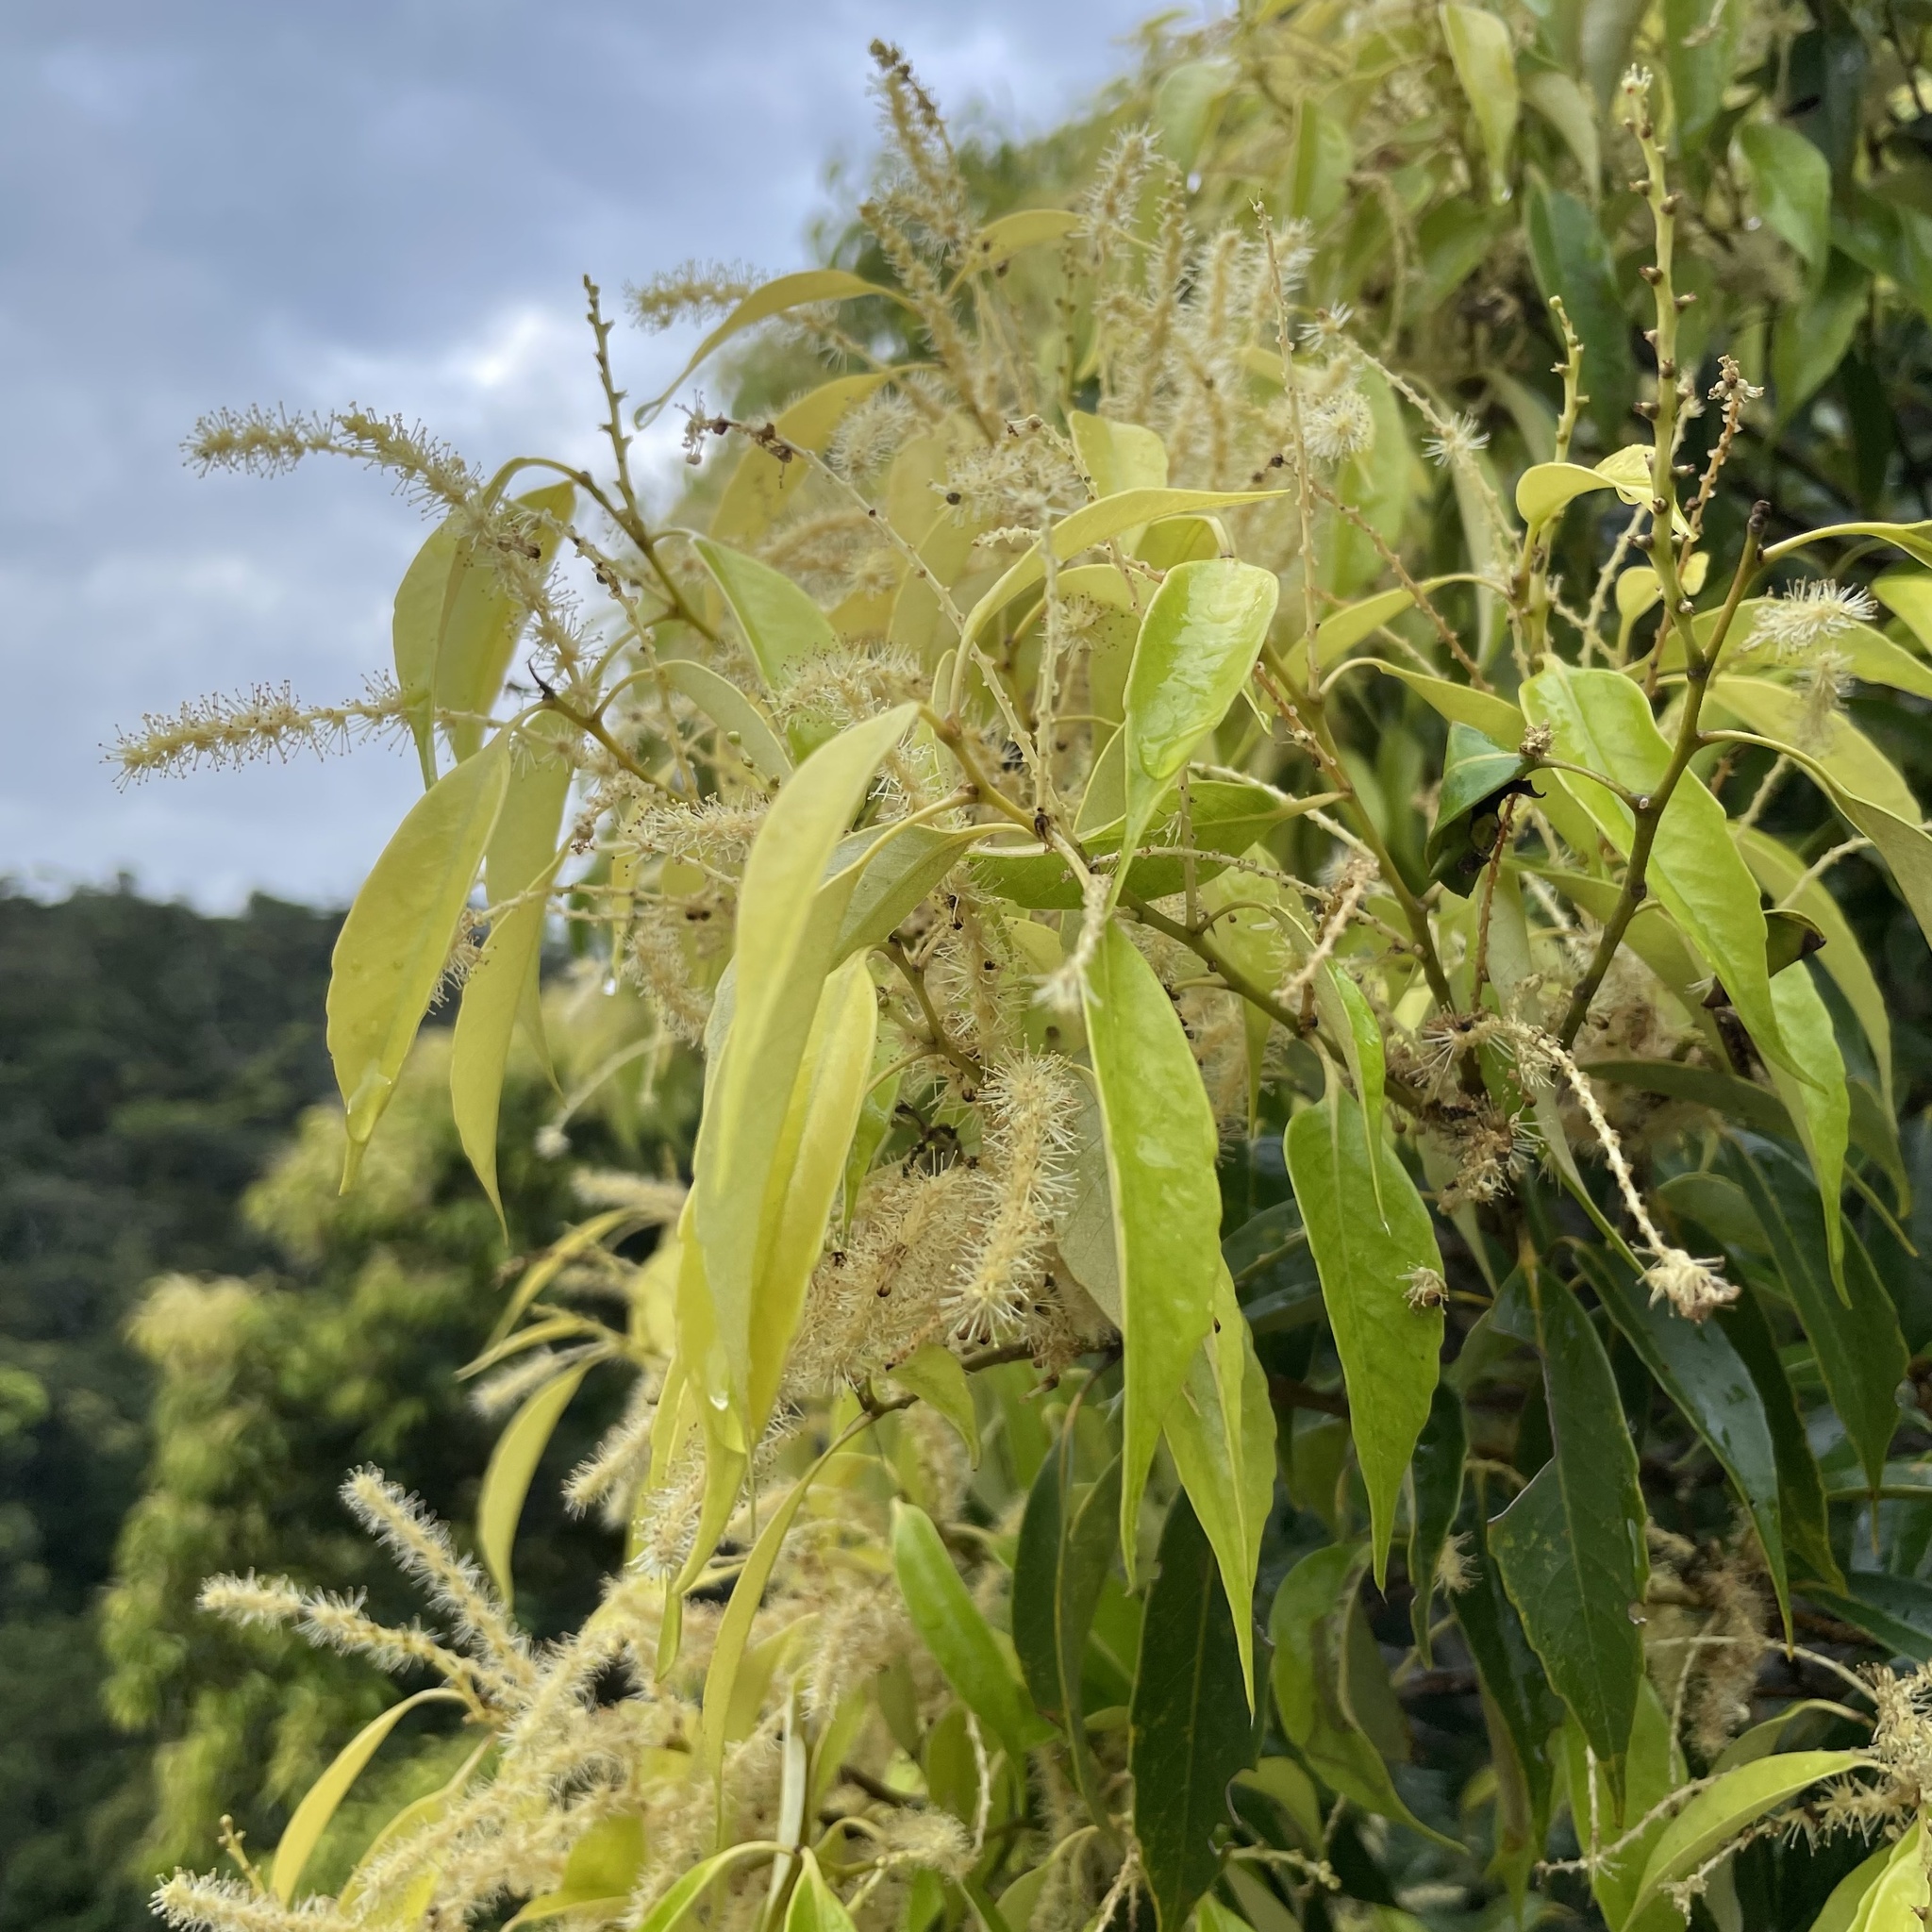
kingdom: Plantae
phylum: Tracheophyta
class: Magnoliopsida
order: Fagales
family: Fagaceae
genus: Castanopsis
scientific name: Castanopsis sieboldii
